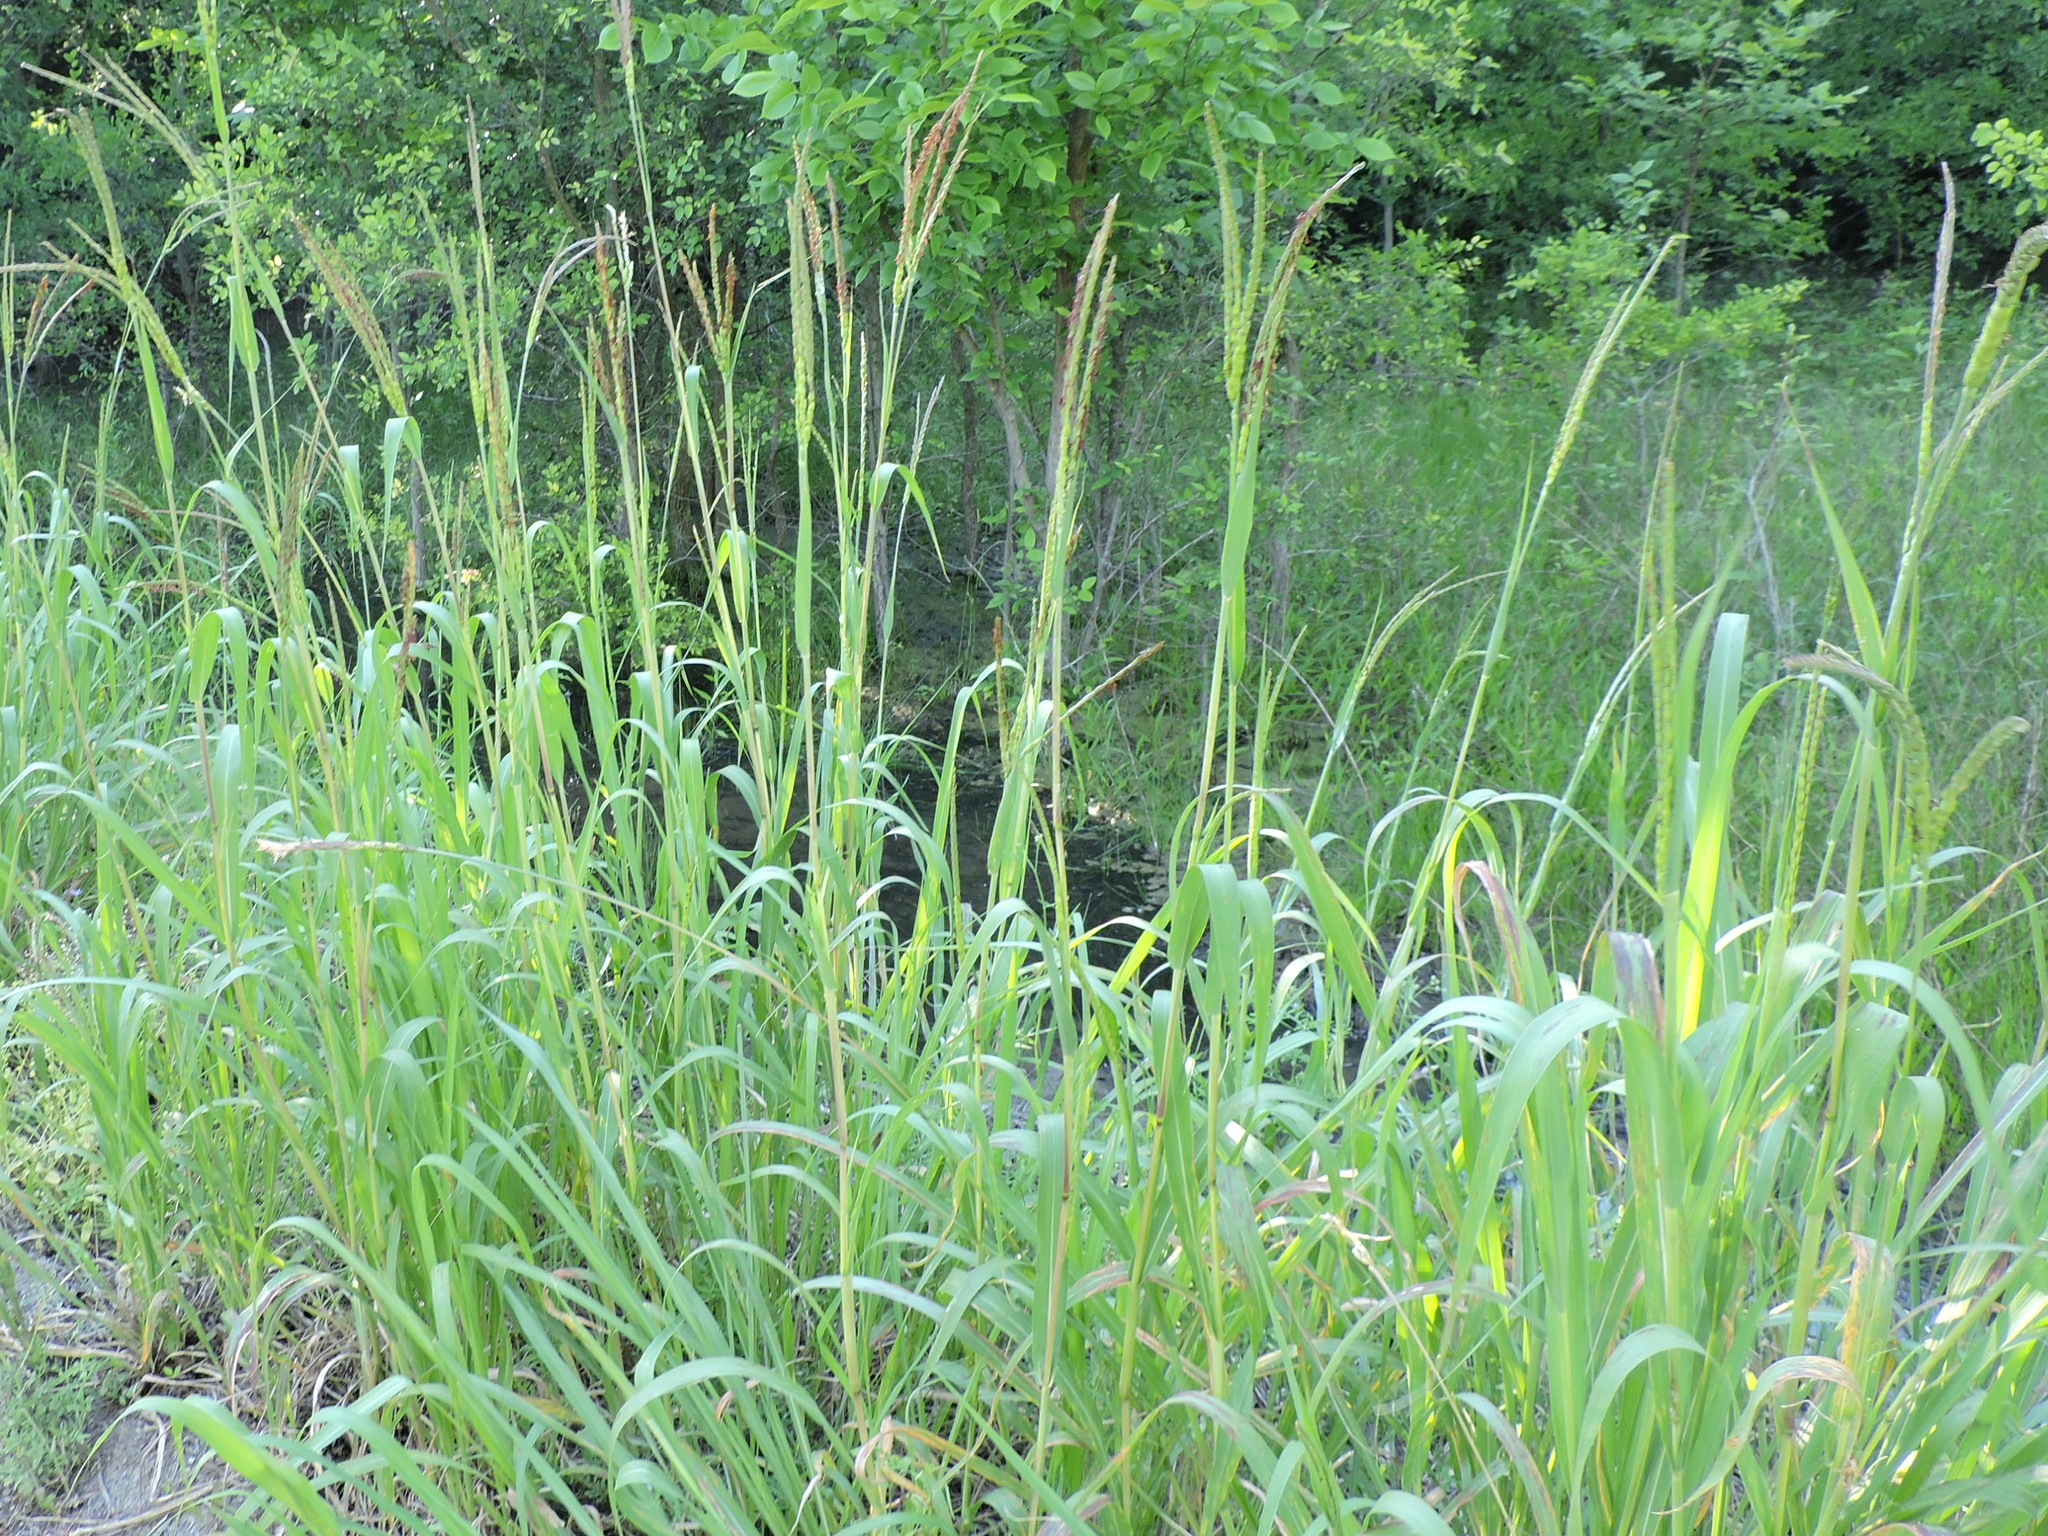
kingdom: Plantae
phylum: Tracheophyta
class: Liliopsida
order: Poales
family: Poaceae
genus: Tripsacum
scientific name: Tripsacum dactyloides
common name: Buffalo-grass
